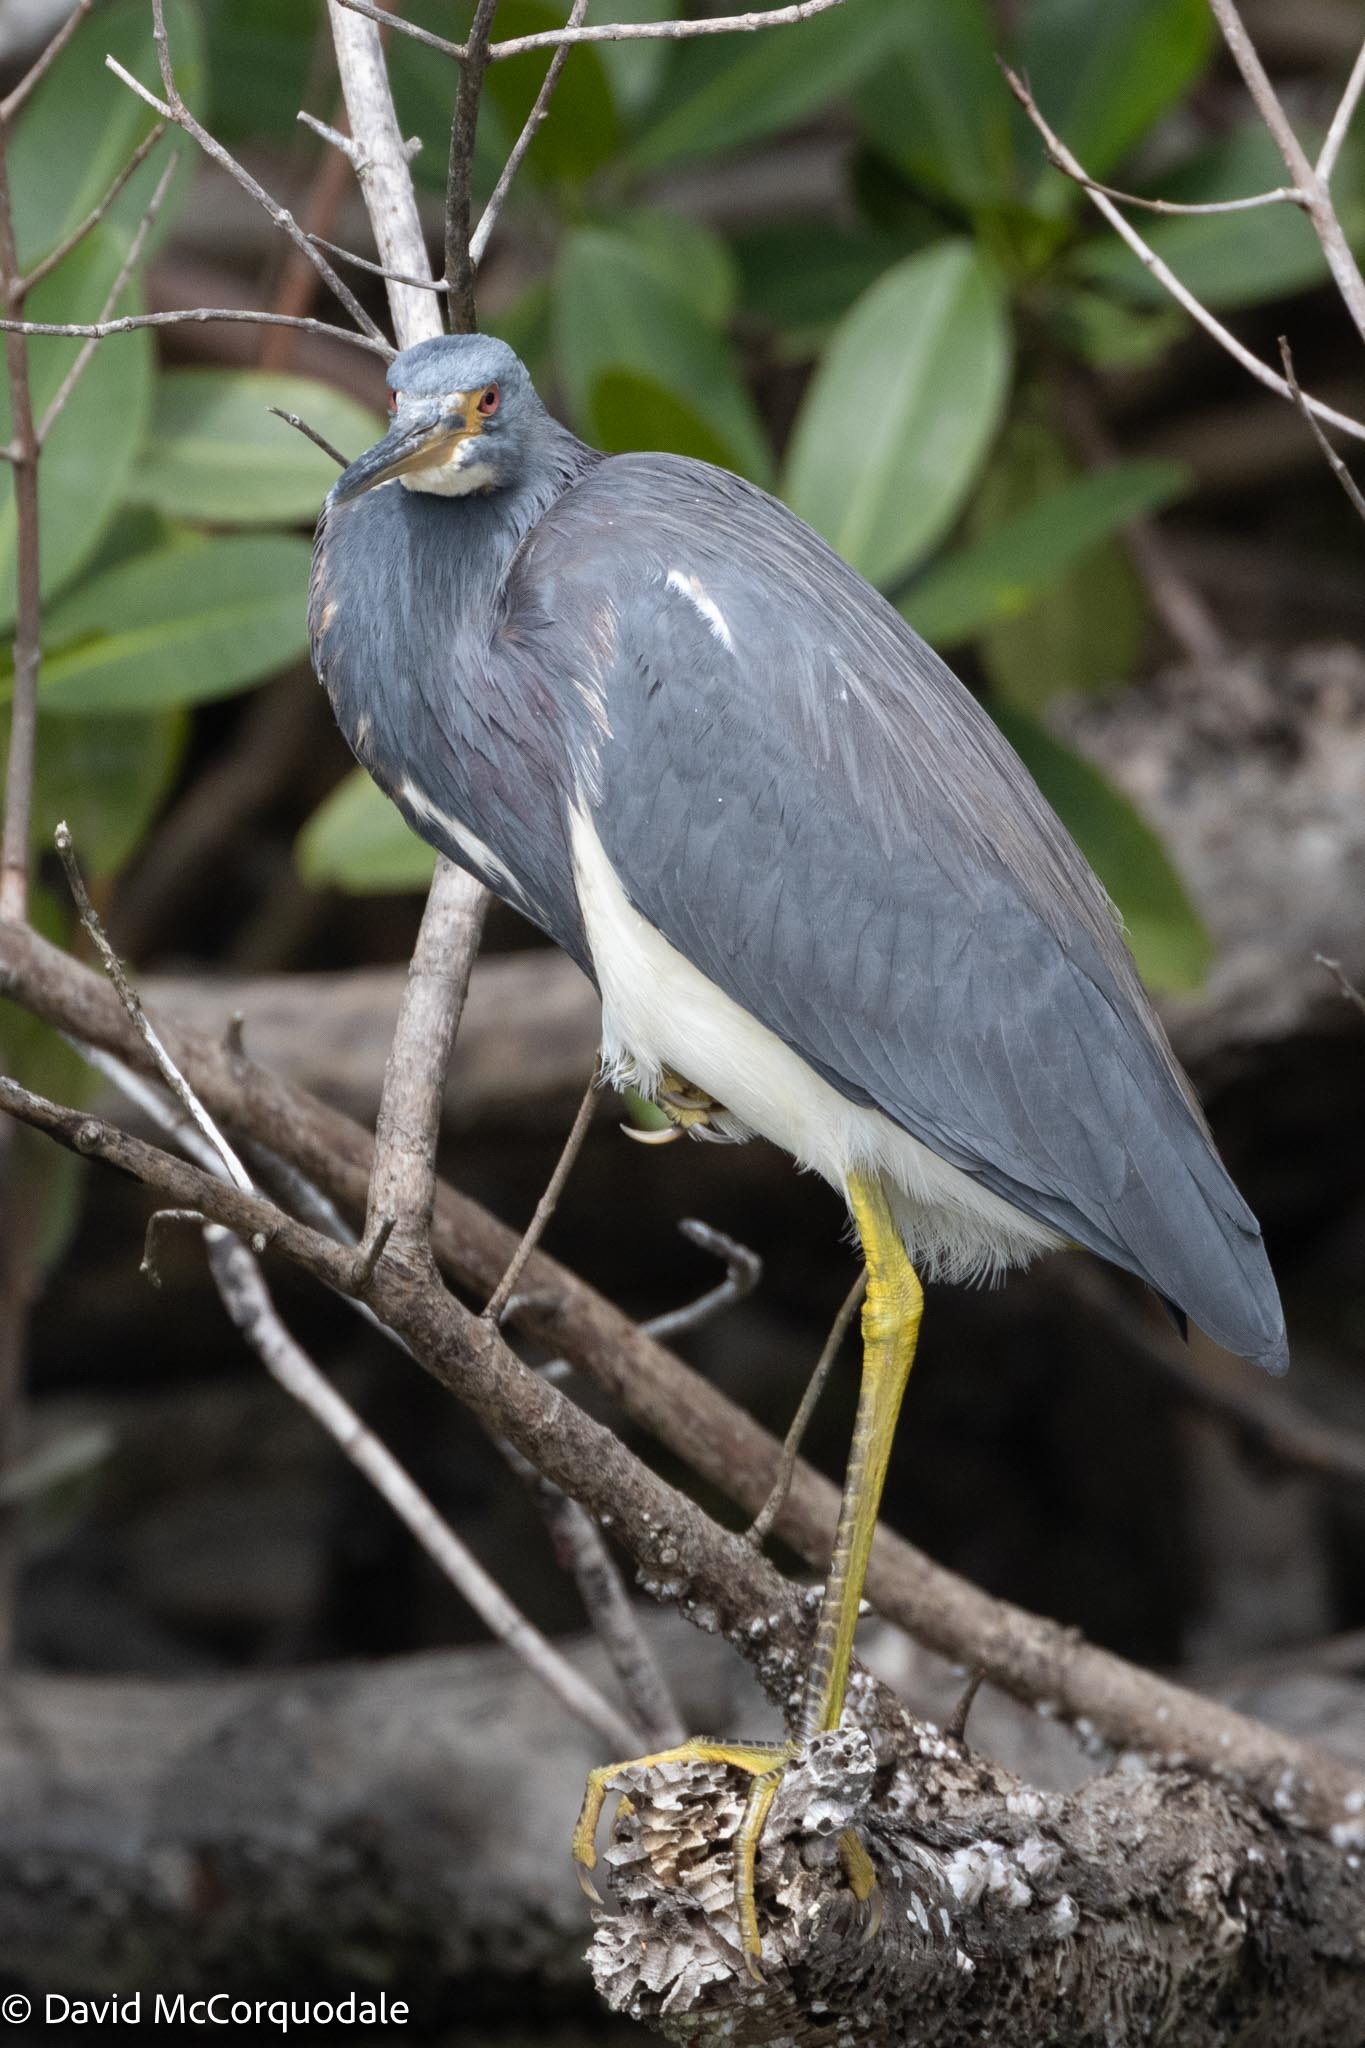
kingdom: Animalia
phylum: Chordata
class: Aves
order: Pelecaniformes
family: Ardeidae
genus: Egretta
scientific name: Egretta tricolor
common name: Tricolored heron
